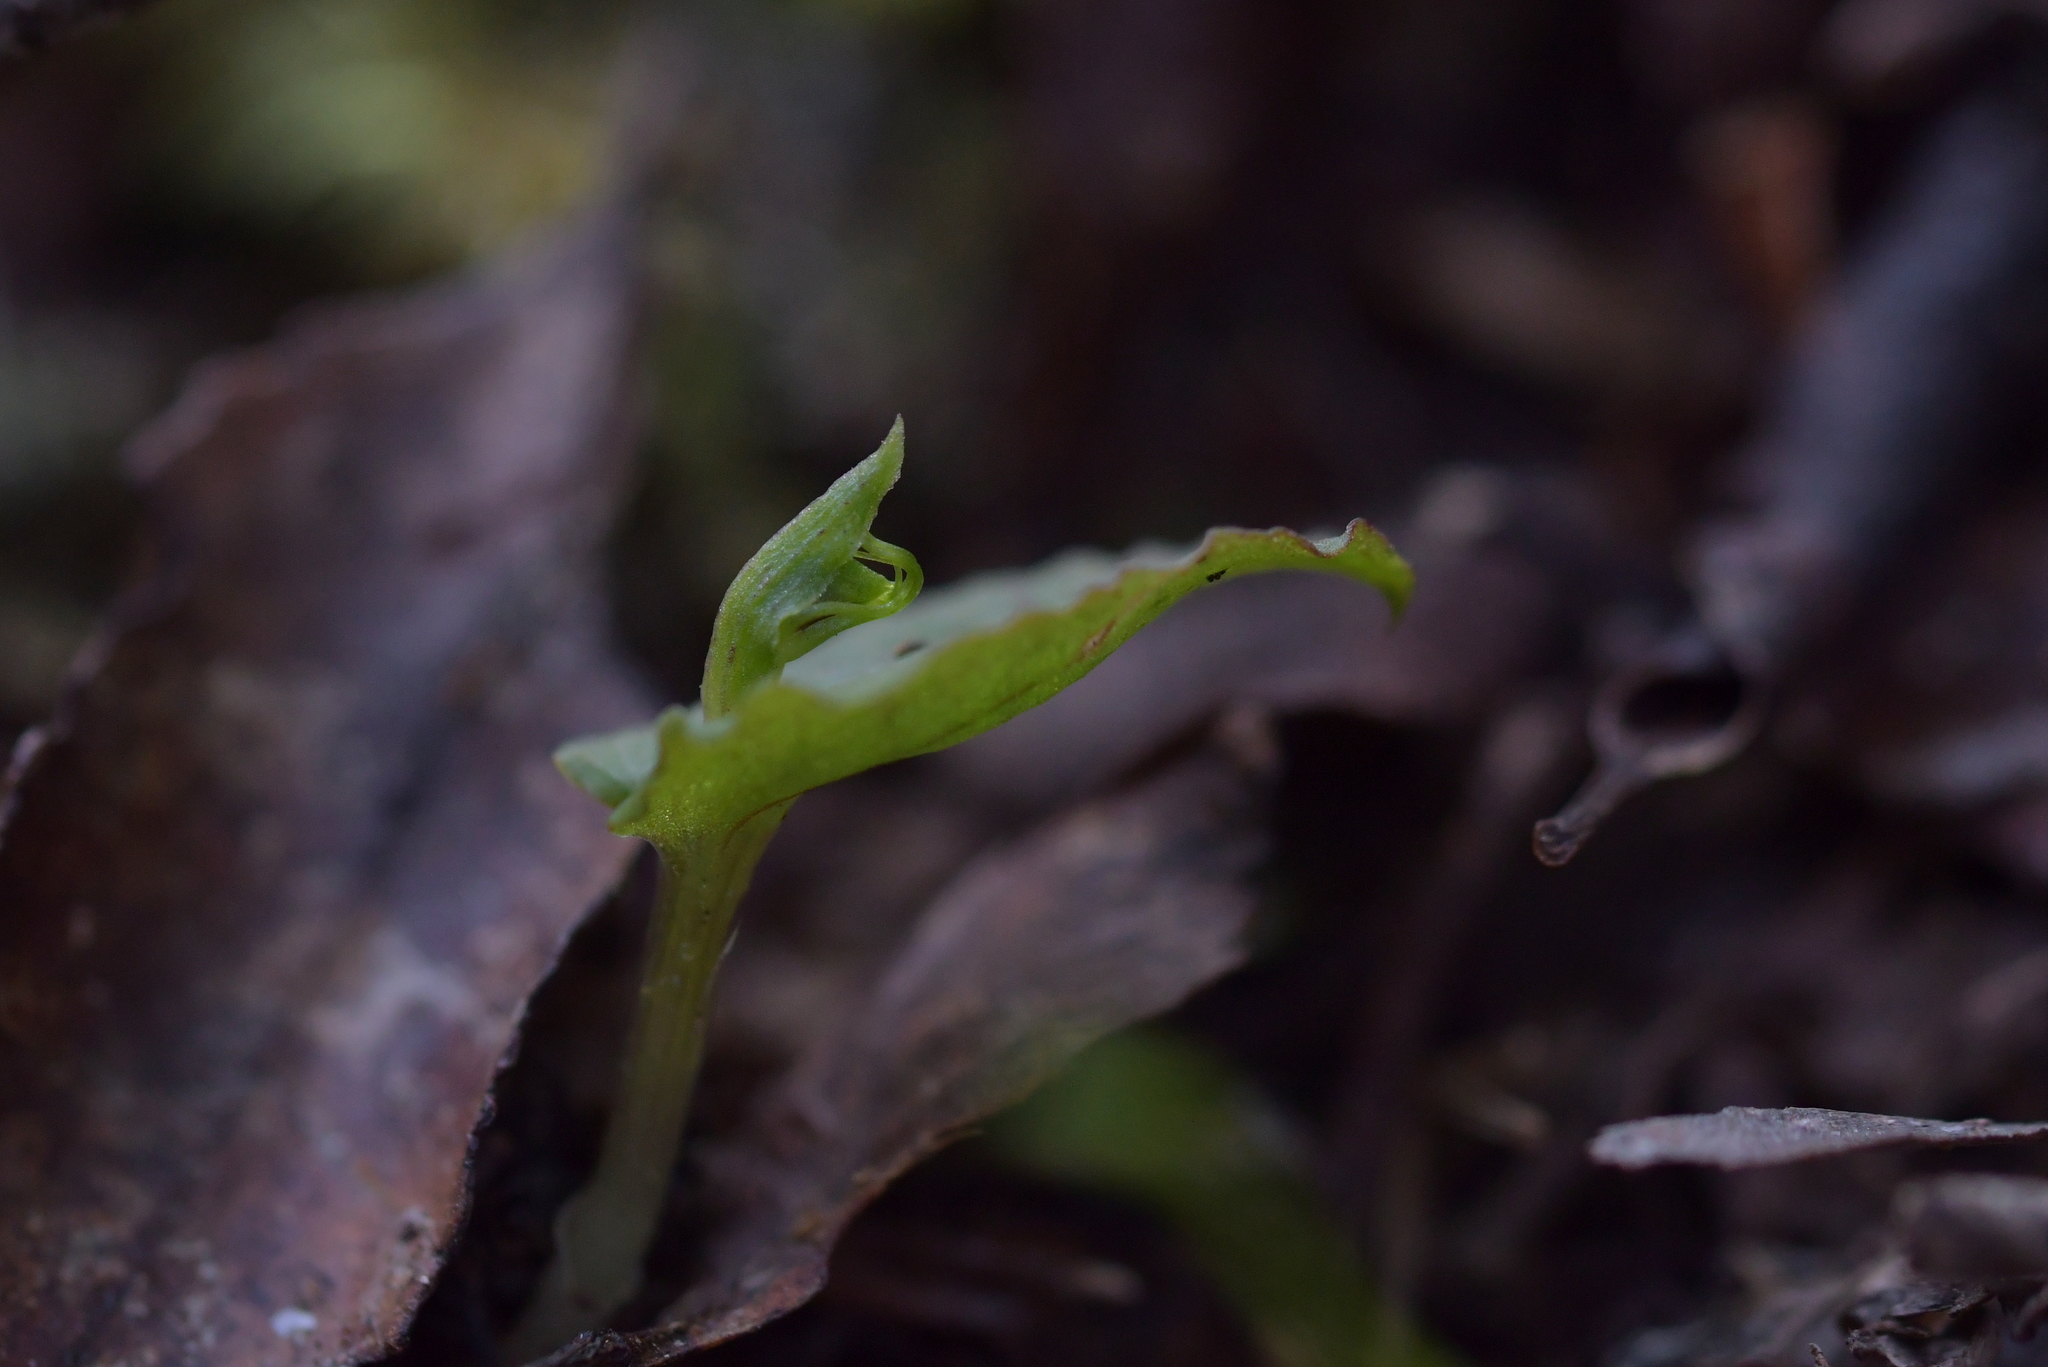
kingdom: Plantae
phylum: Tracheophyta
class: Liliopsida
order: Asparagales
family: Orchidaceae
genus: Corybas
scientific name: Corybas oblongus
